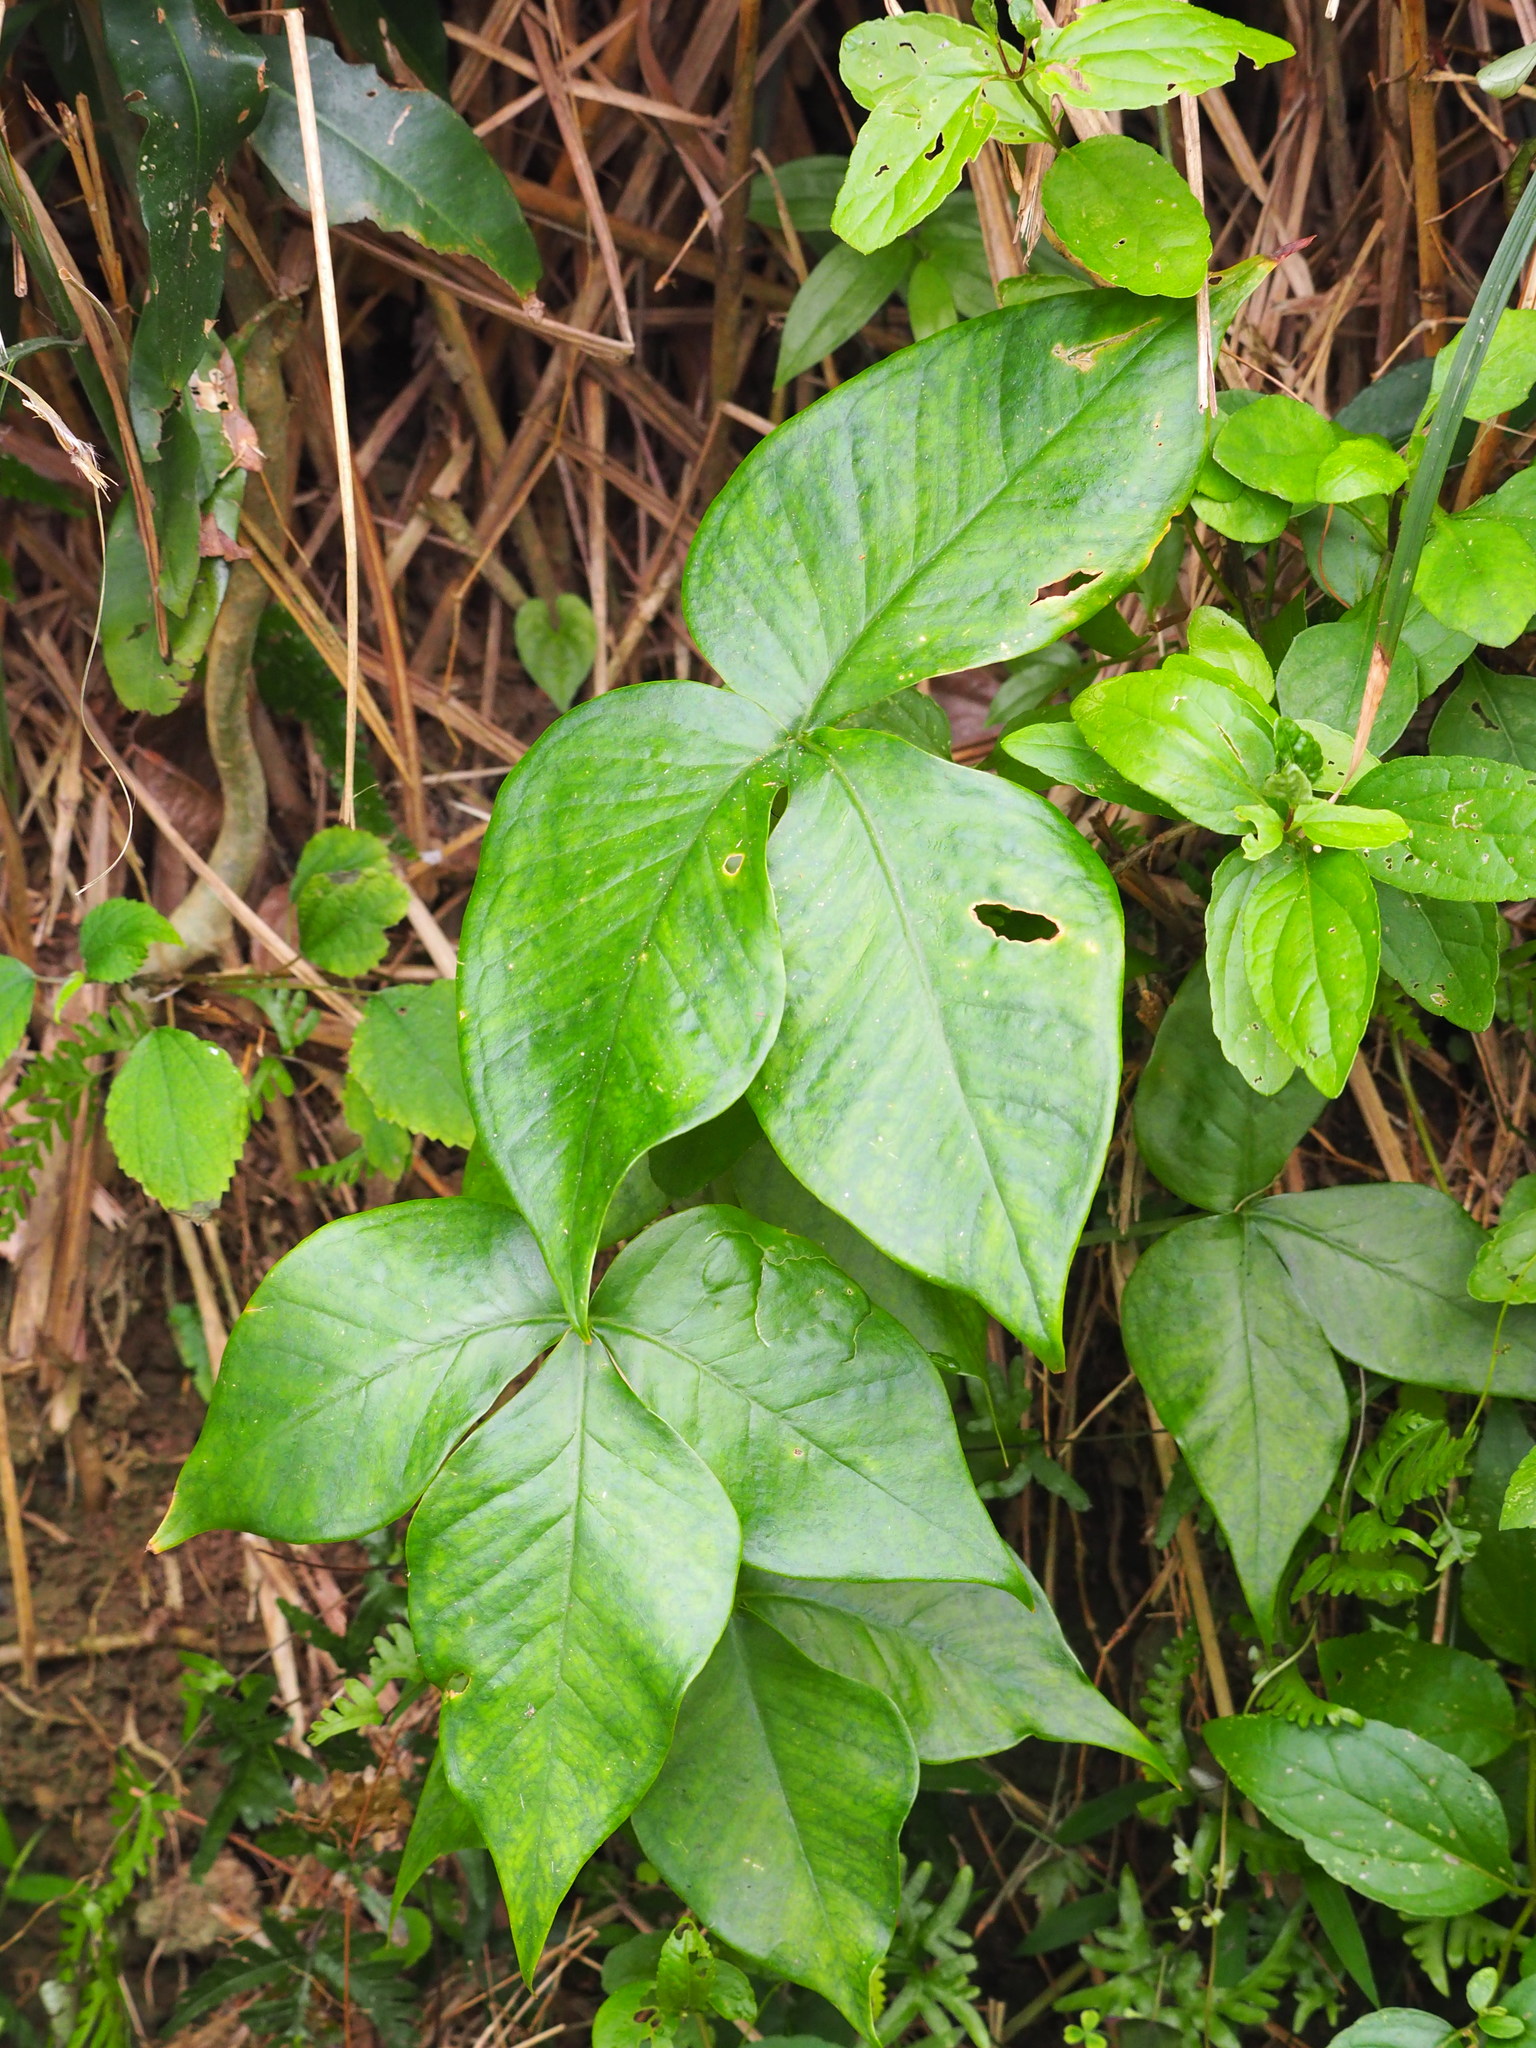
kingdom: Plantae
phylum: Tracheophyta
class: Liliopsida
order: Alismatales
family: Araceae
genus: Arisaema
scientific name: Arisaema ringens
